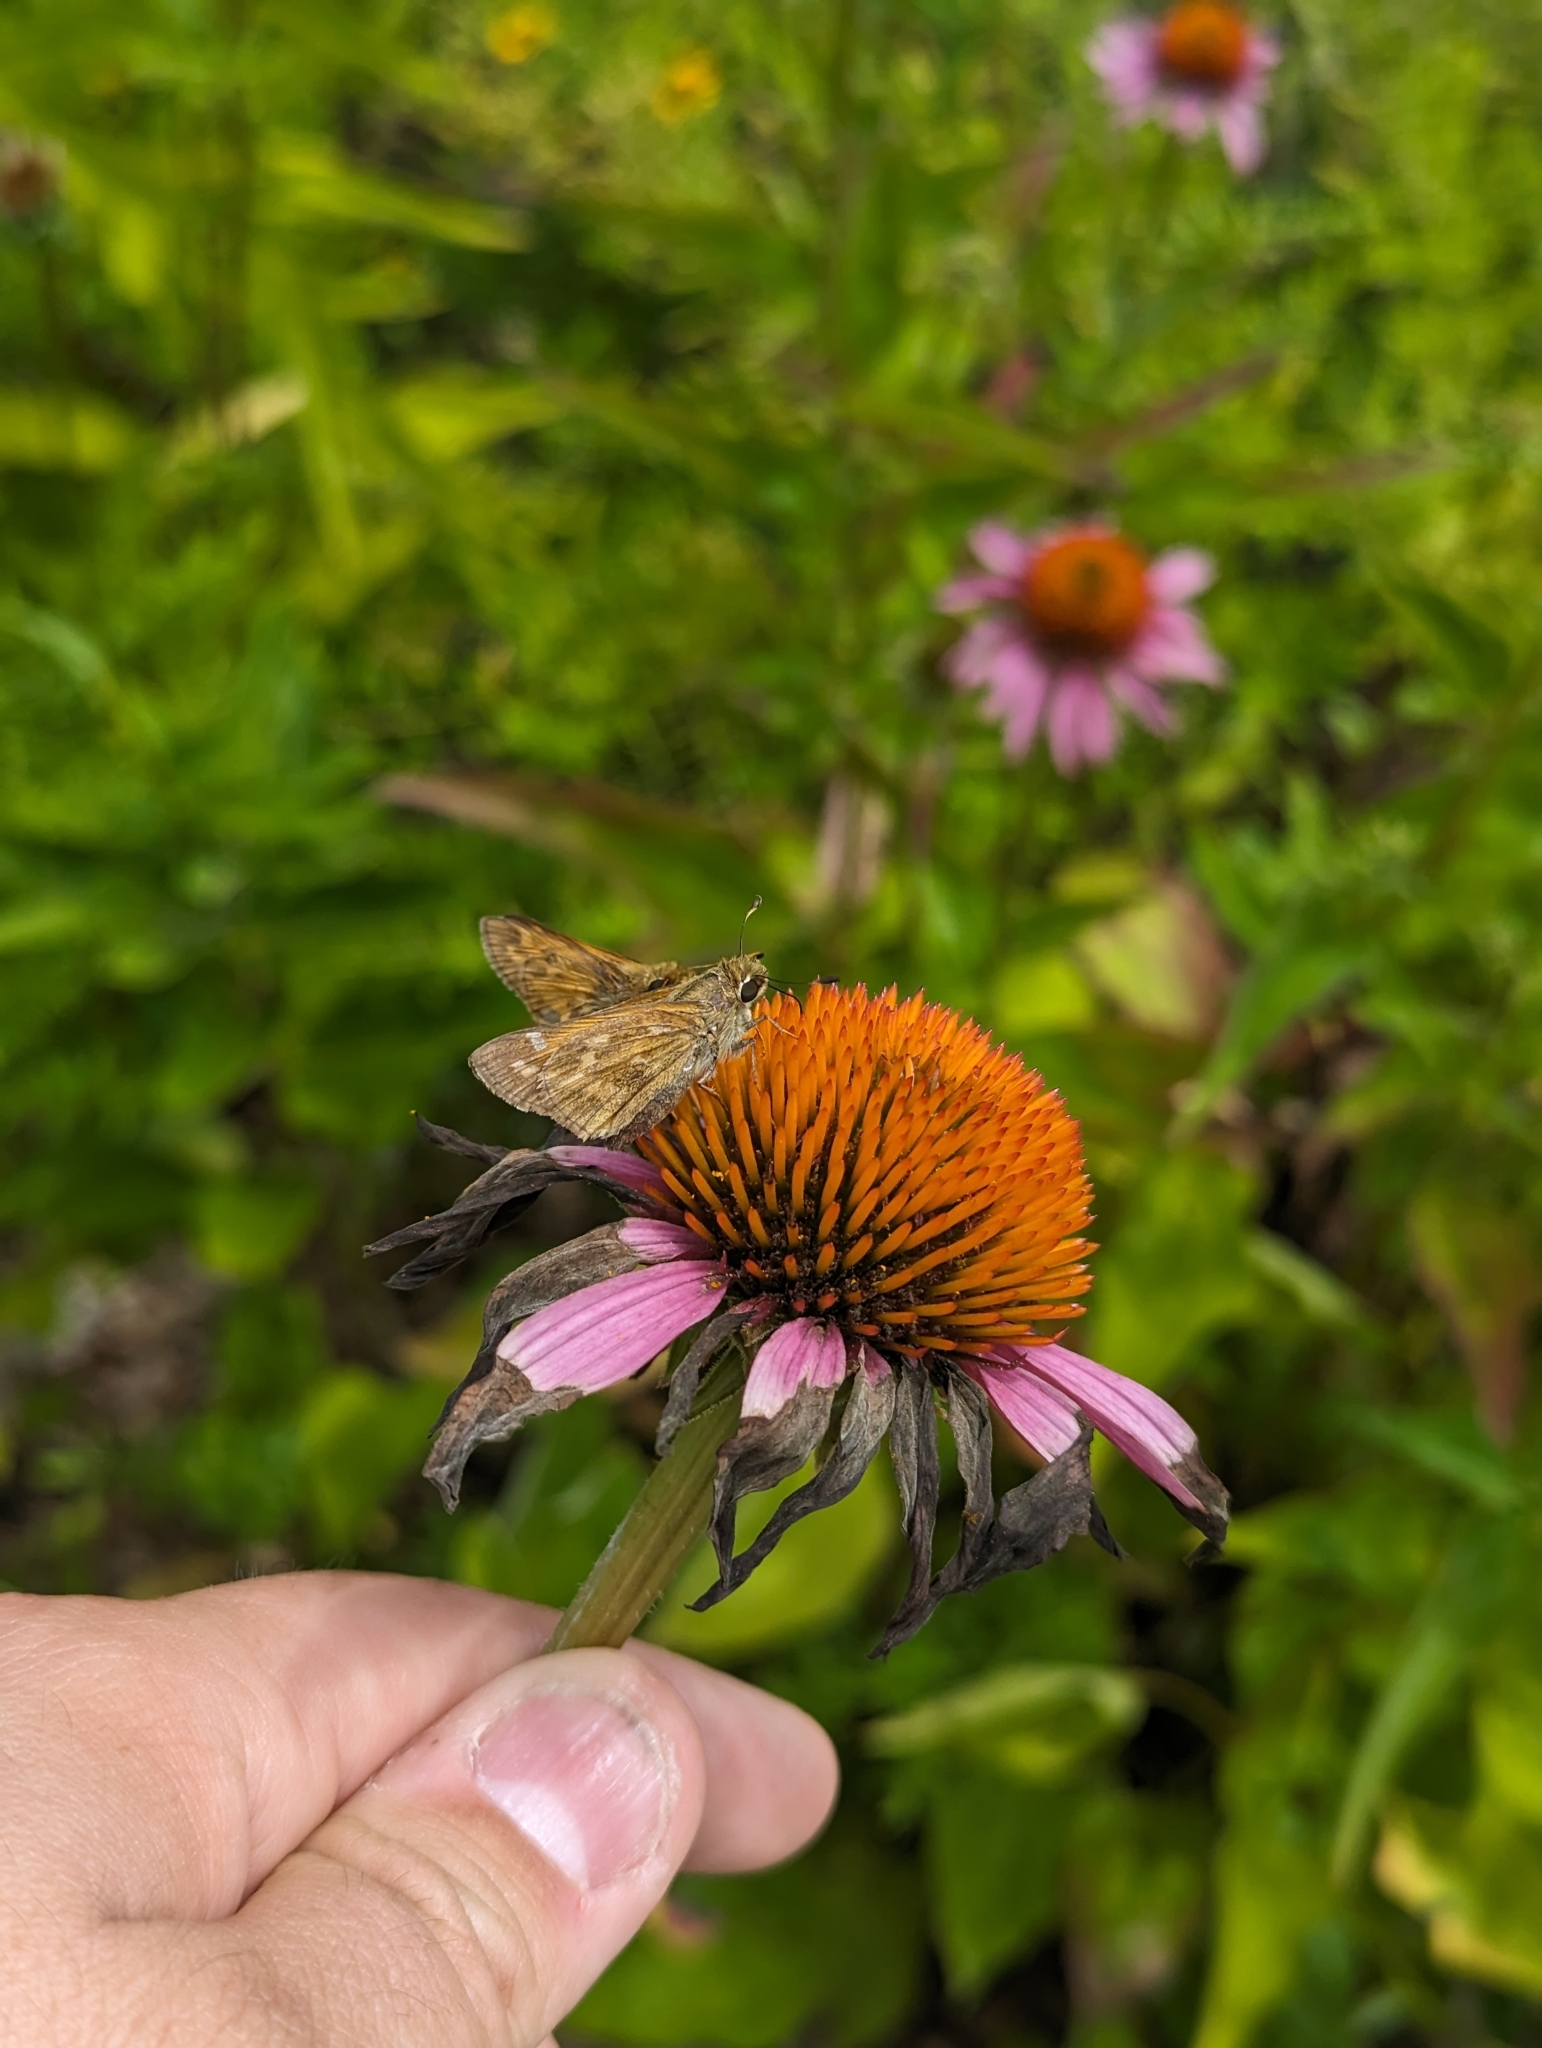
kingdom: Animalia
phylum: Arthropoda
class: Insecta
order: Lepidoptera
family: Hesperiidae
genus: Atalopedes
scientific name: Atalopedes
